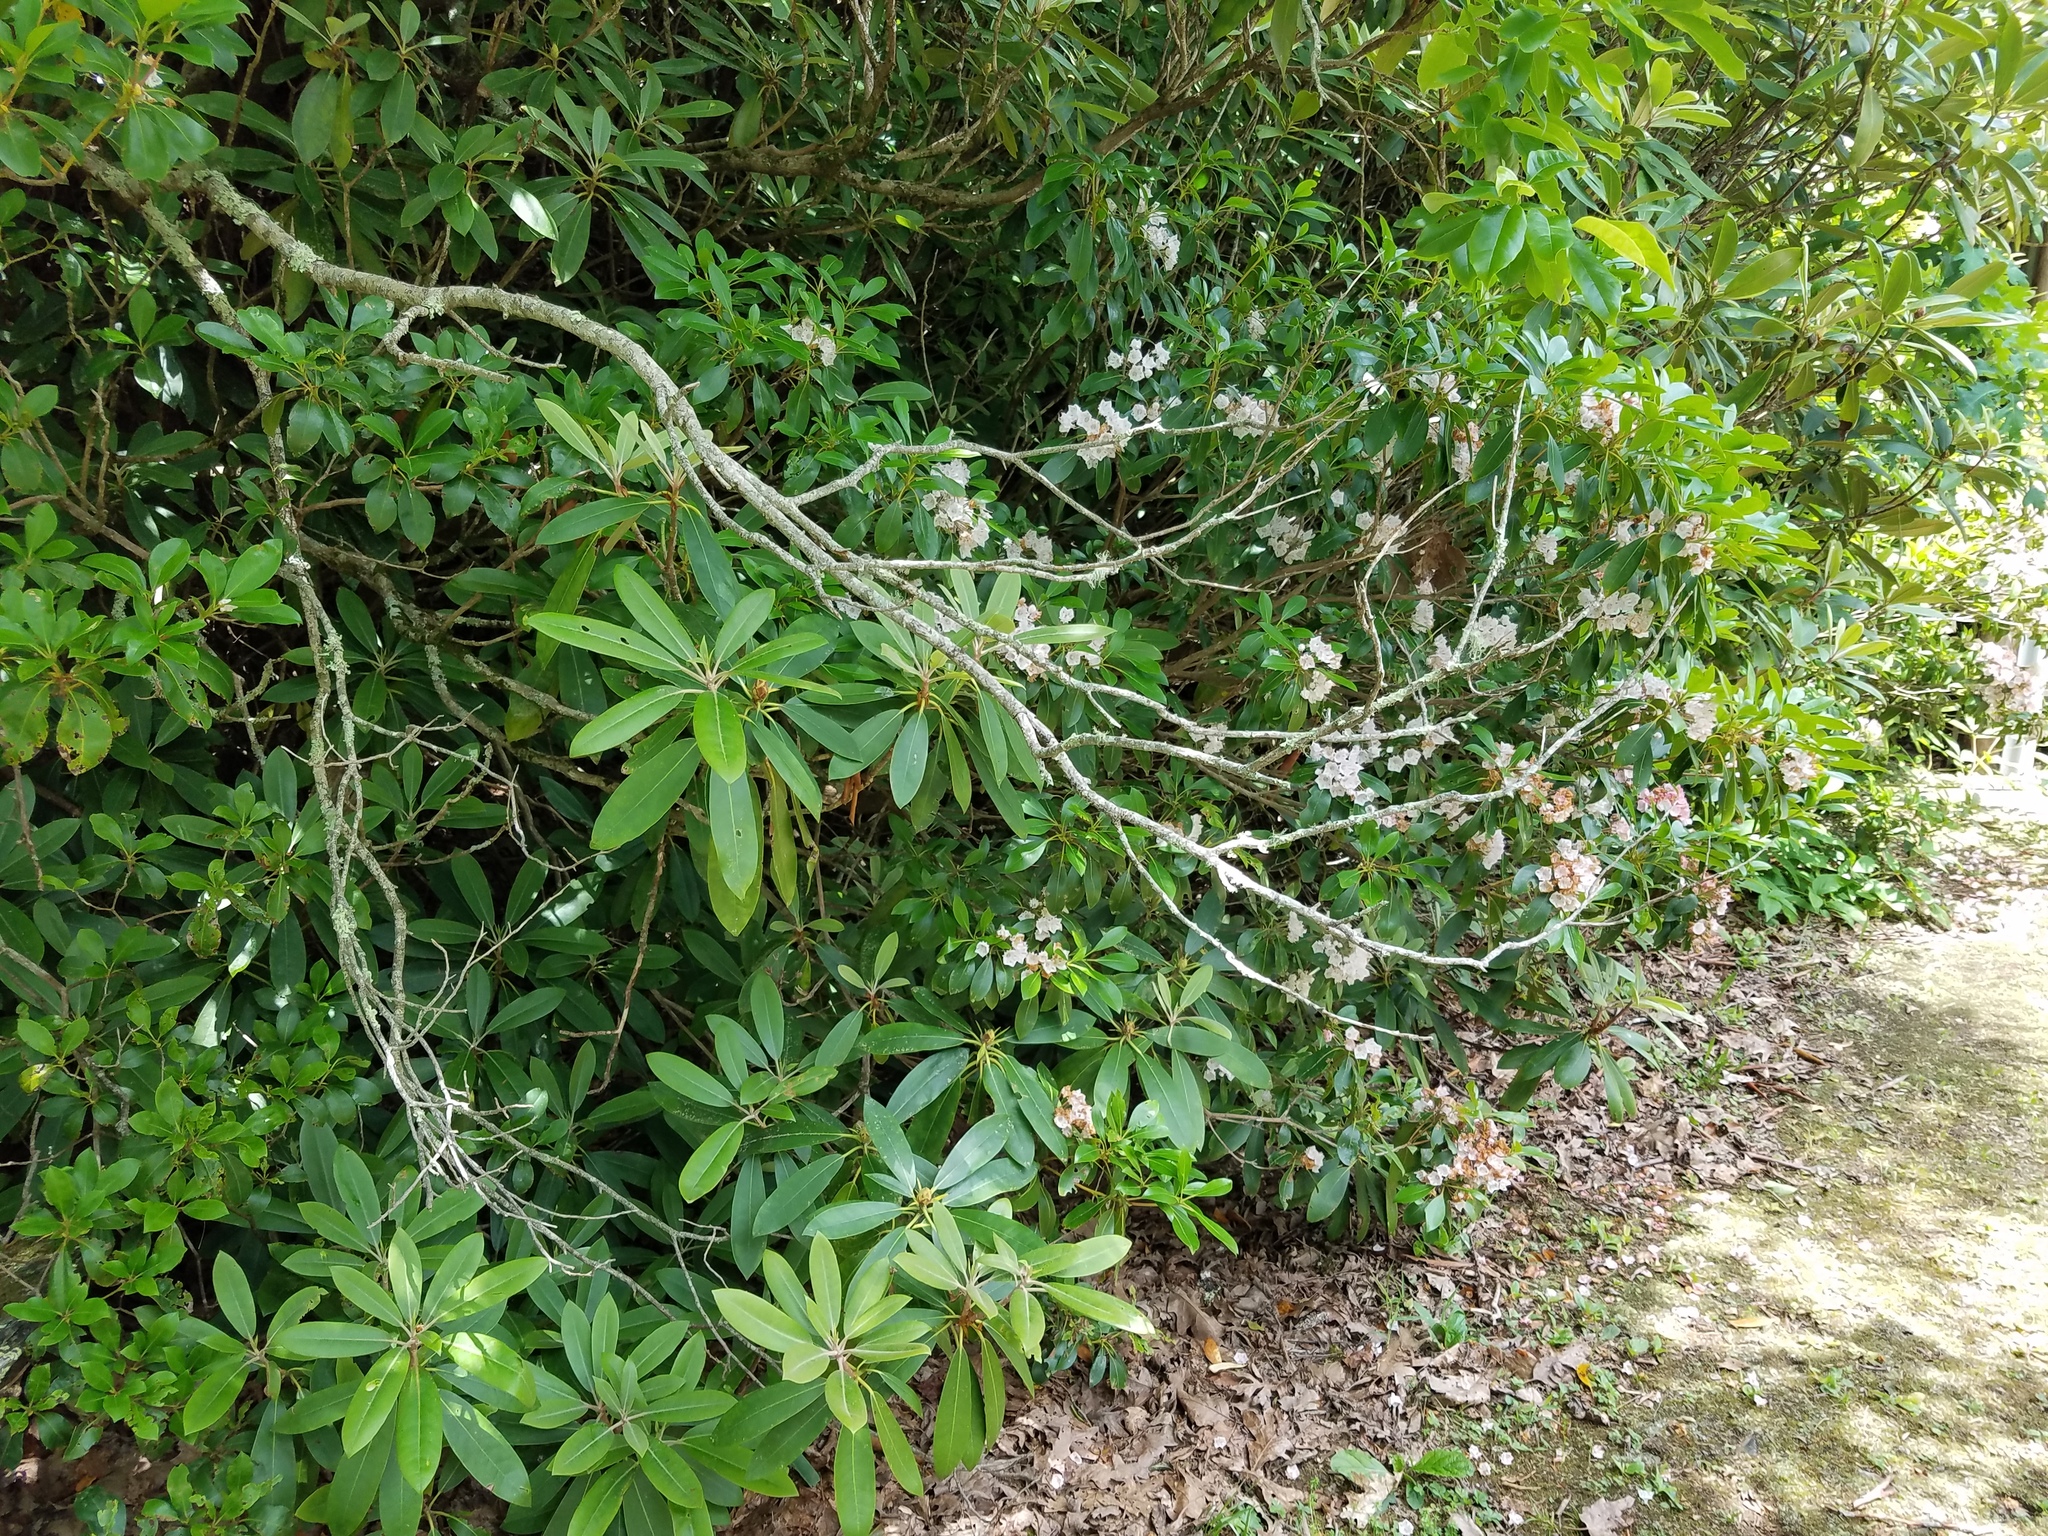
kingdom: Plantae
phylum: Tracheophyta
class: Magnoliopsida
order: Ericales
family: Ericaceae
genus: Kalmia
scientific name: Kalmia latifolia
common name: Mountain-laurel
